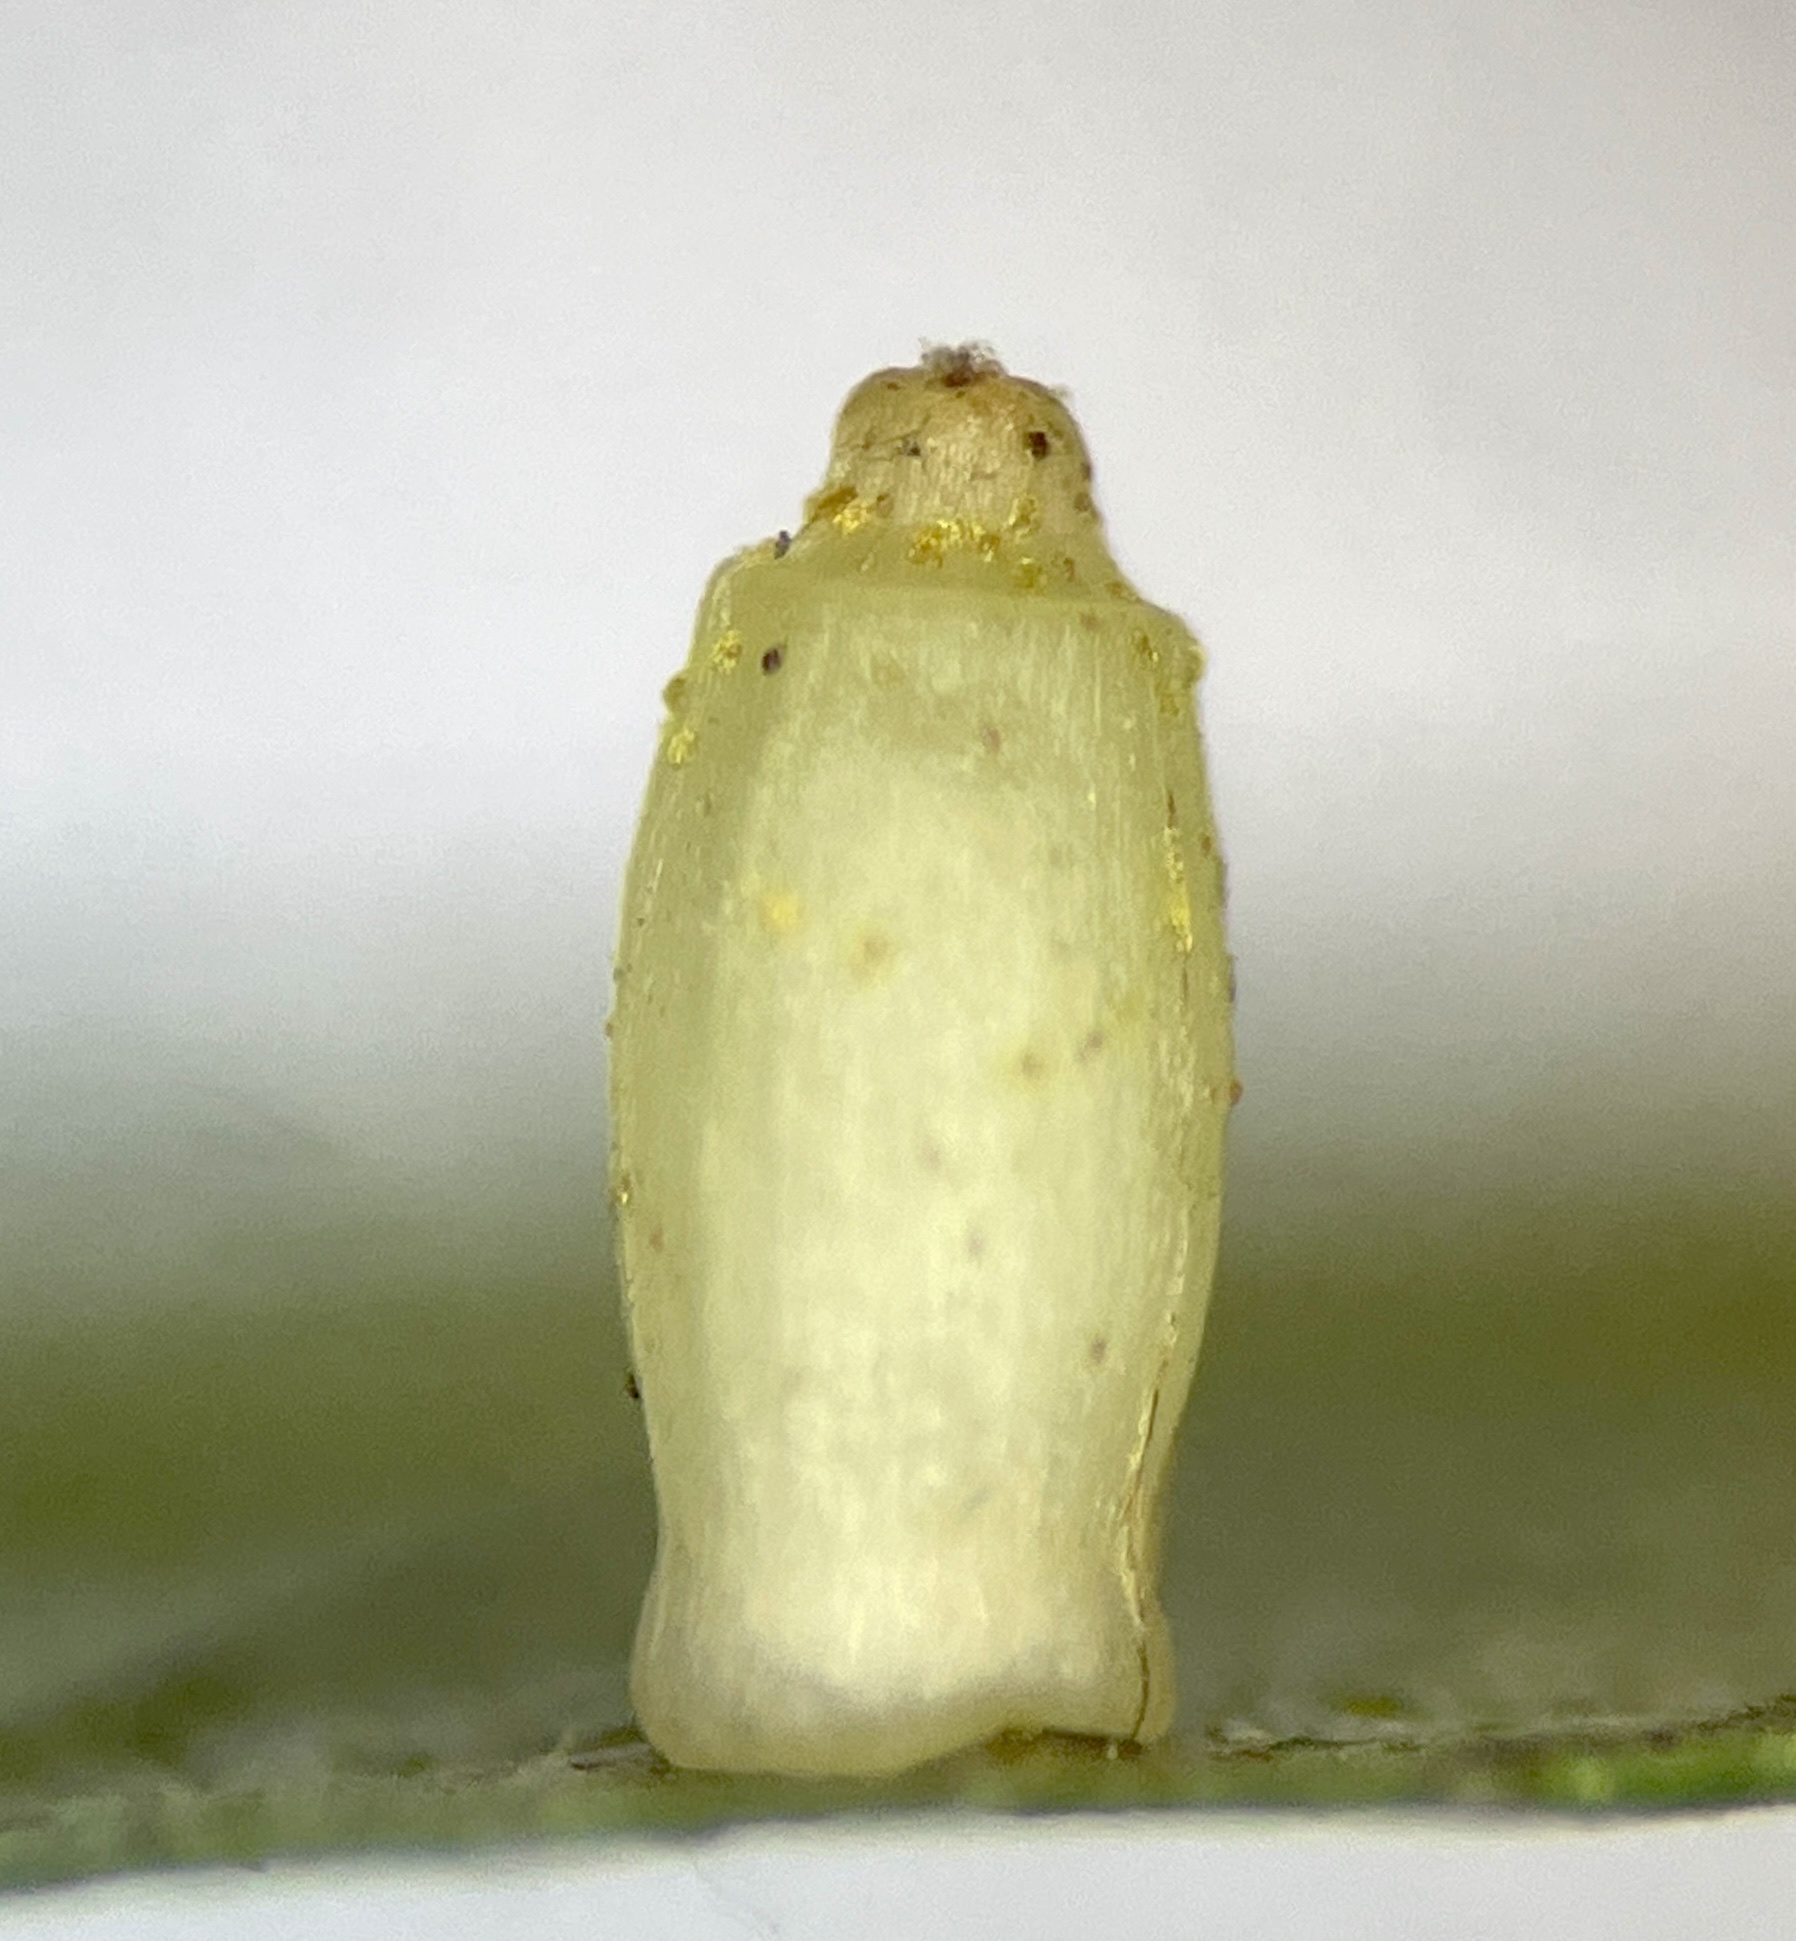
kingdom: Animalia
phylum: Arthropoda
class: Insecta
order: Diptera
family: Cecidomyiidae
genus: Caryomyia
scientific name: Caryomyia urnula
